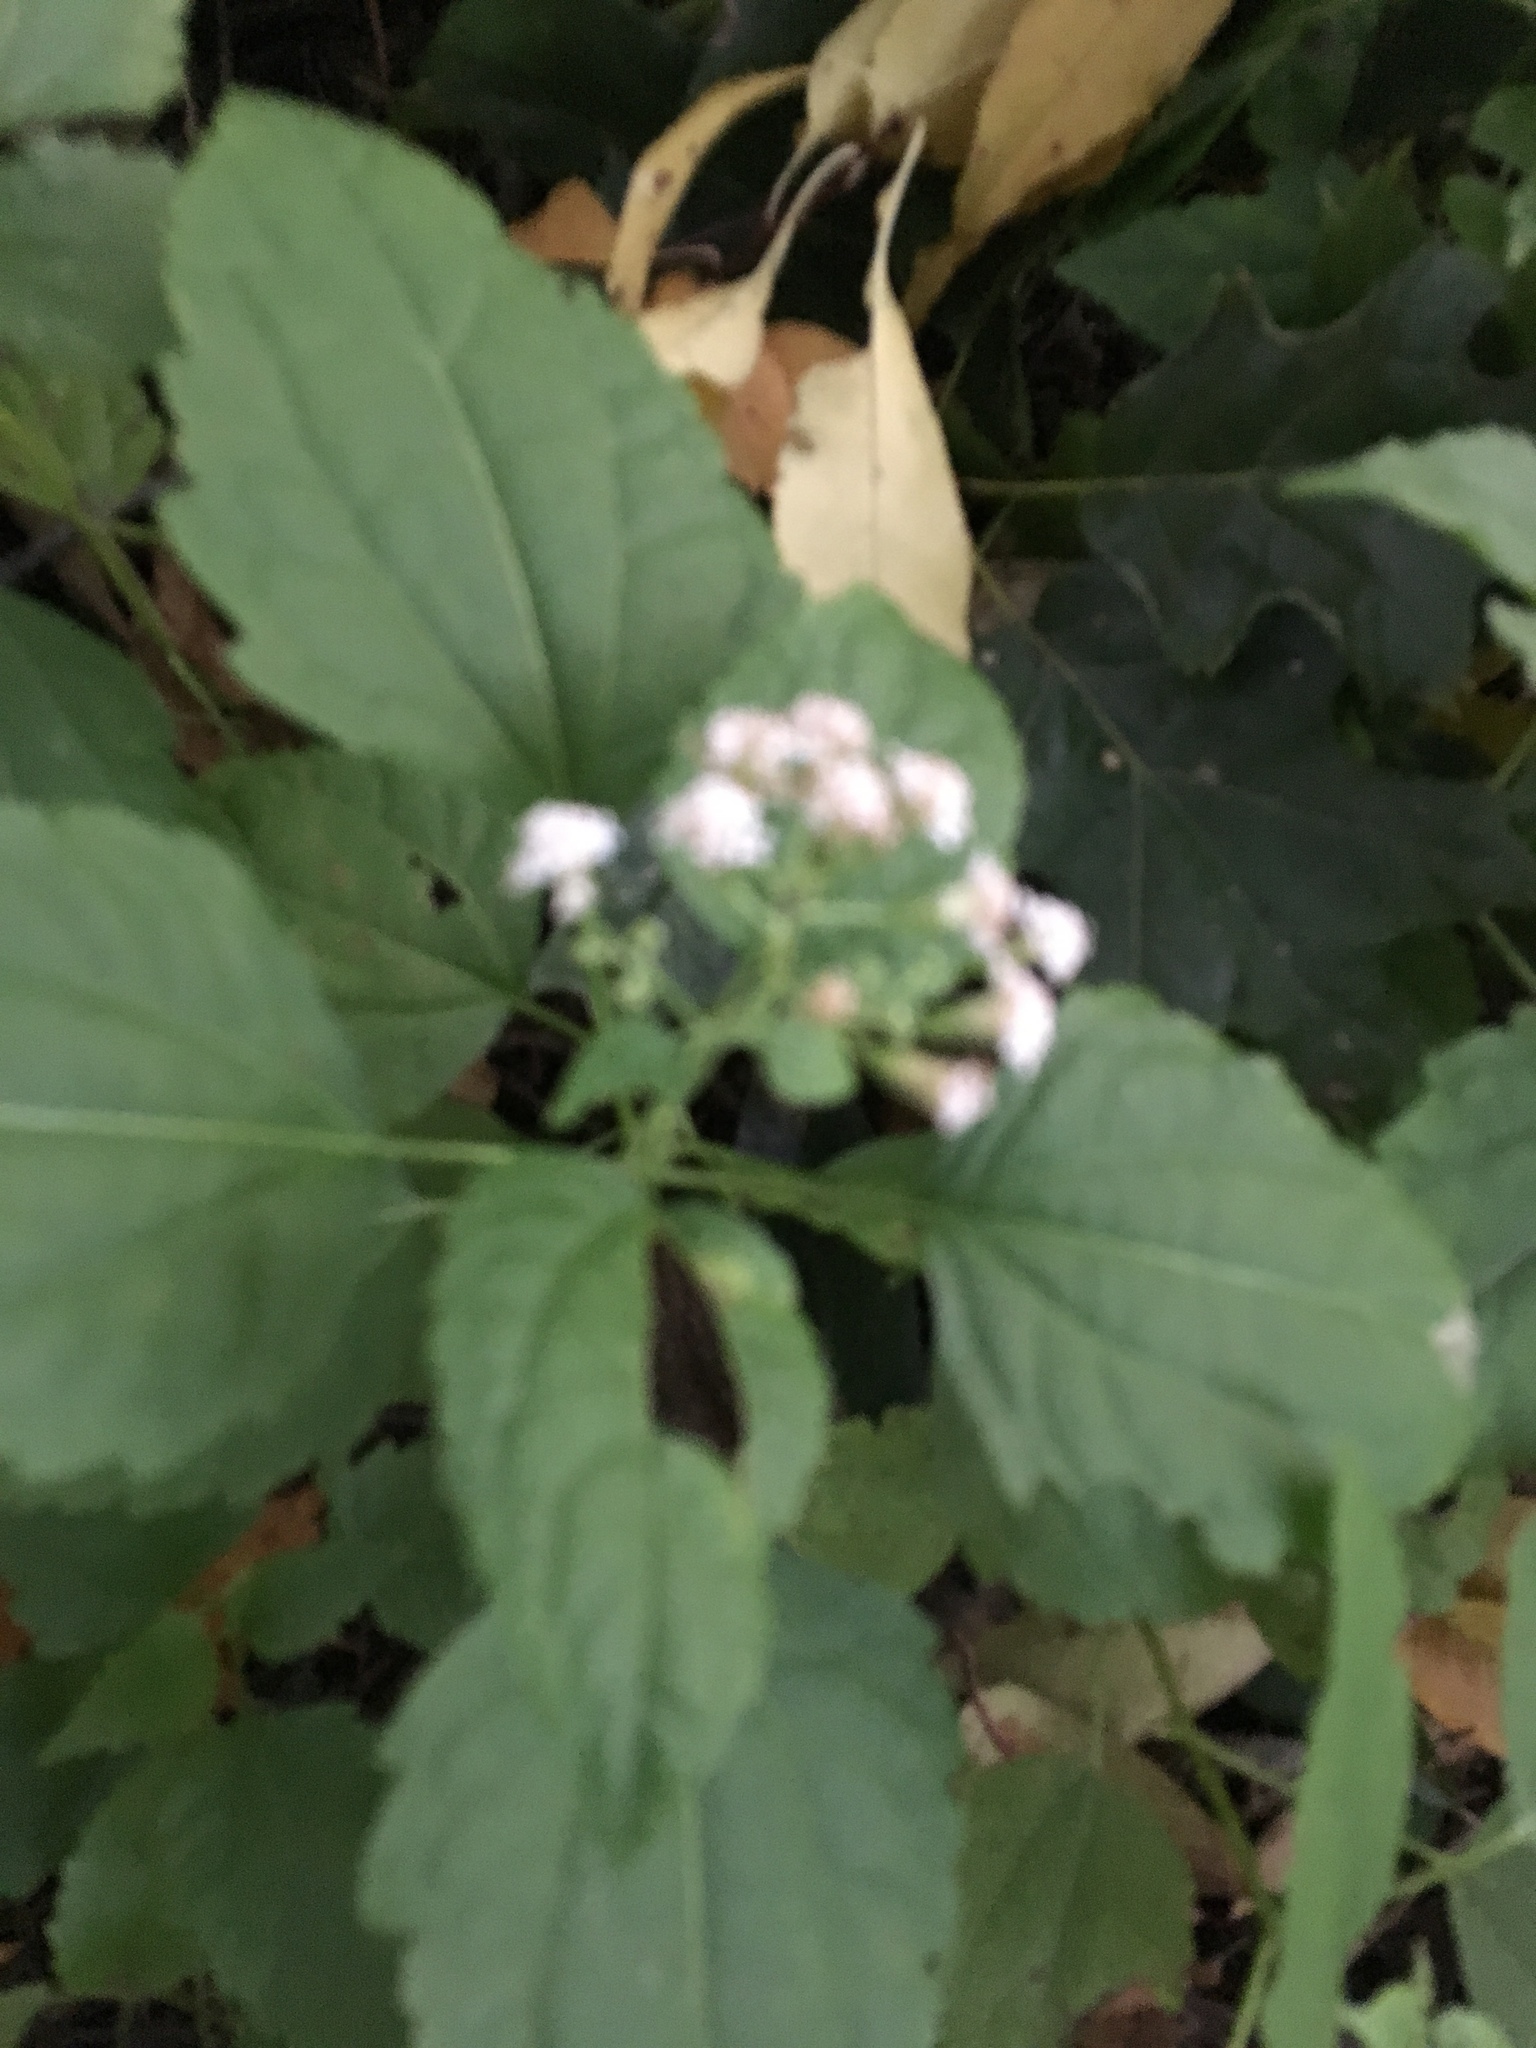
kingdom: Plantae
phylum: Tracheophyta
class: Magnoliopsida
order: Asterales
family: Asteraceae
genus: Ageratina
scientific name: Ageratina altissima
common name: White snakeroot
